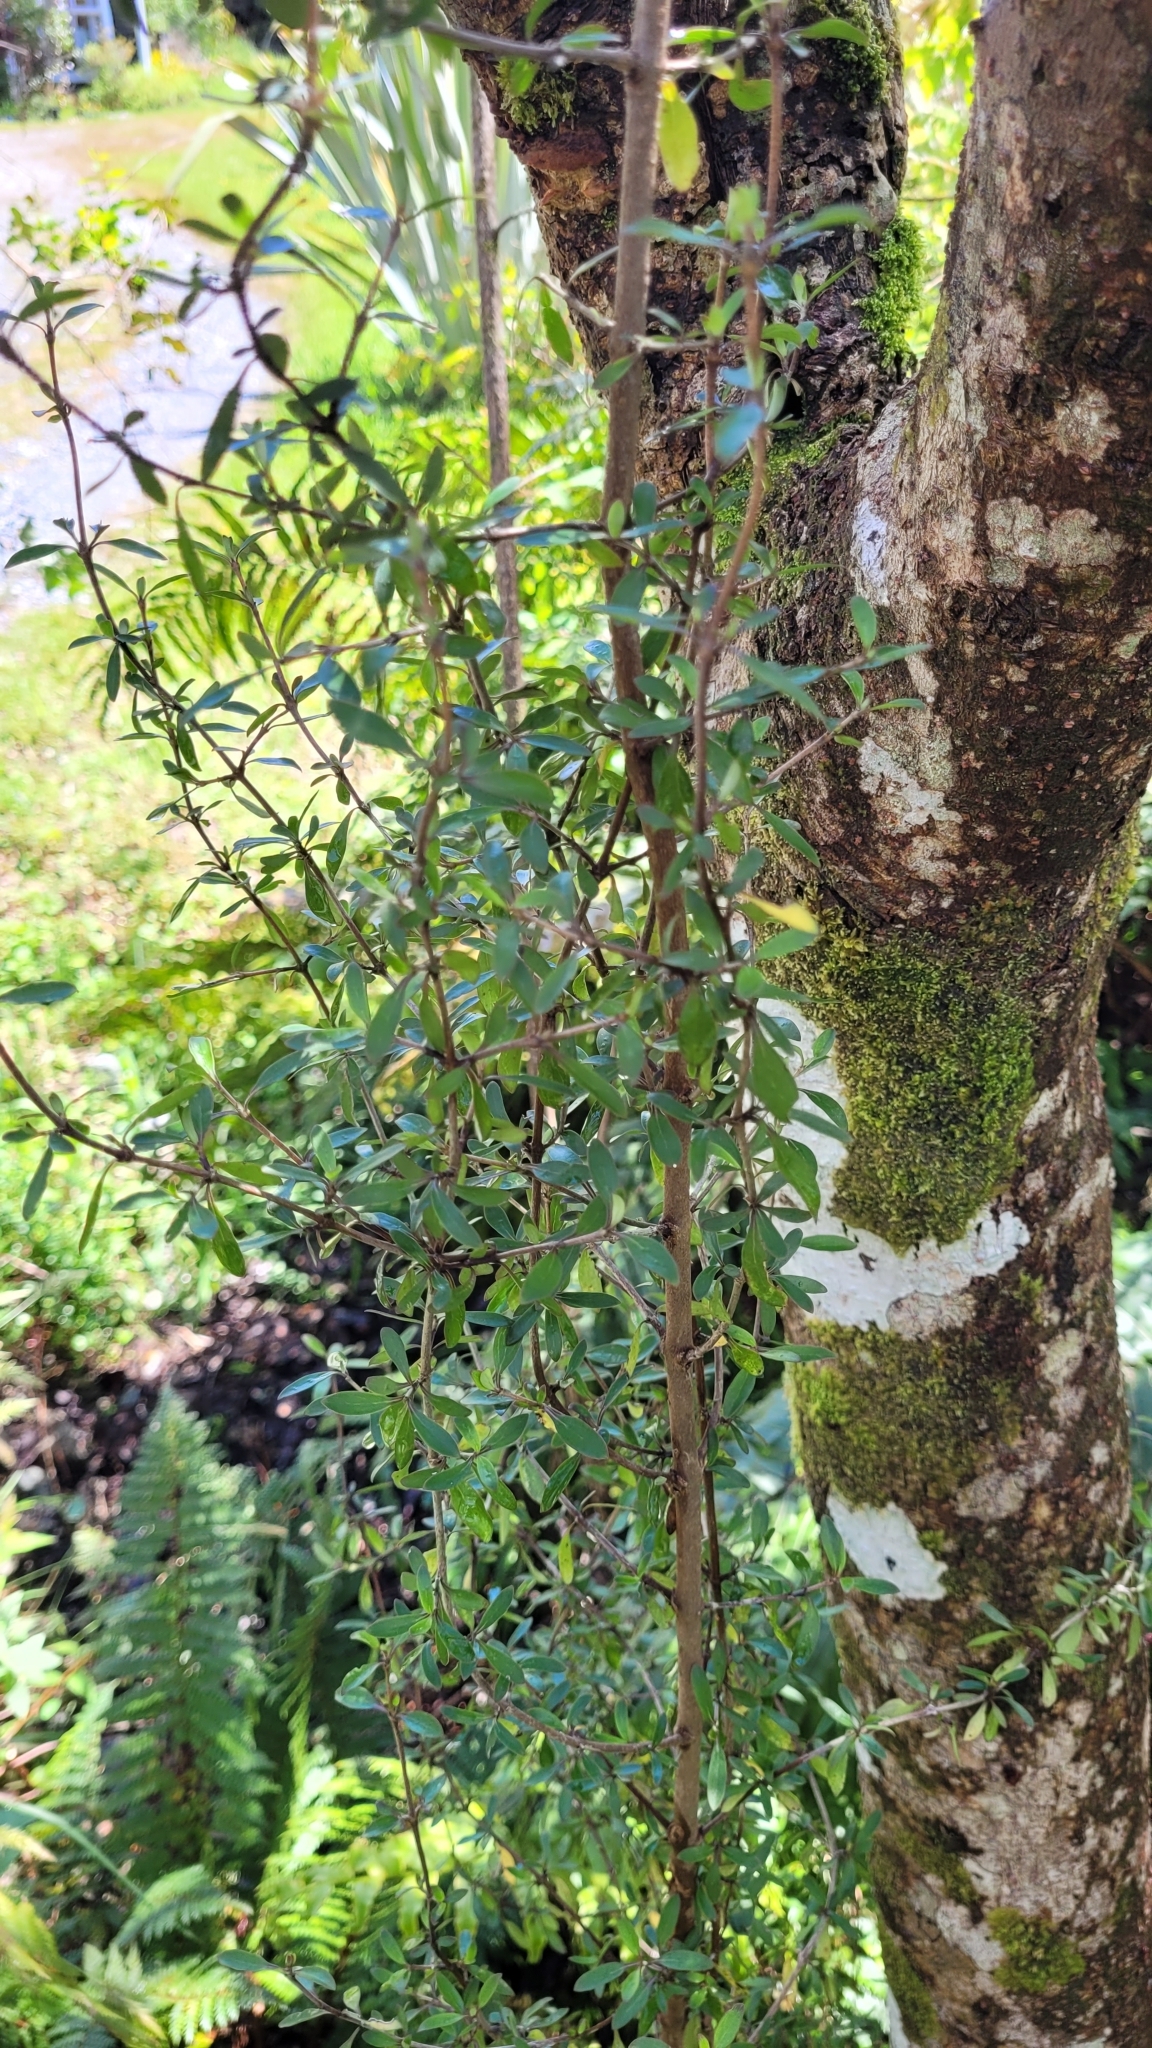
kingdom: Plantae
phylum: Tracheophyta
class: Magnoliopsida
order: Gentianales
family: Rubiaceae
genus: Coprosma
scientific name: Coprosma cunninghamii
